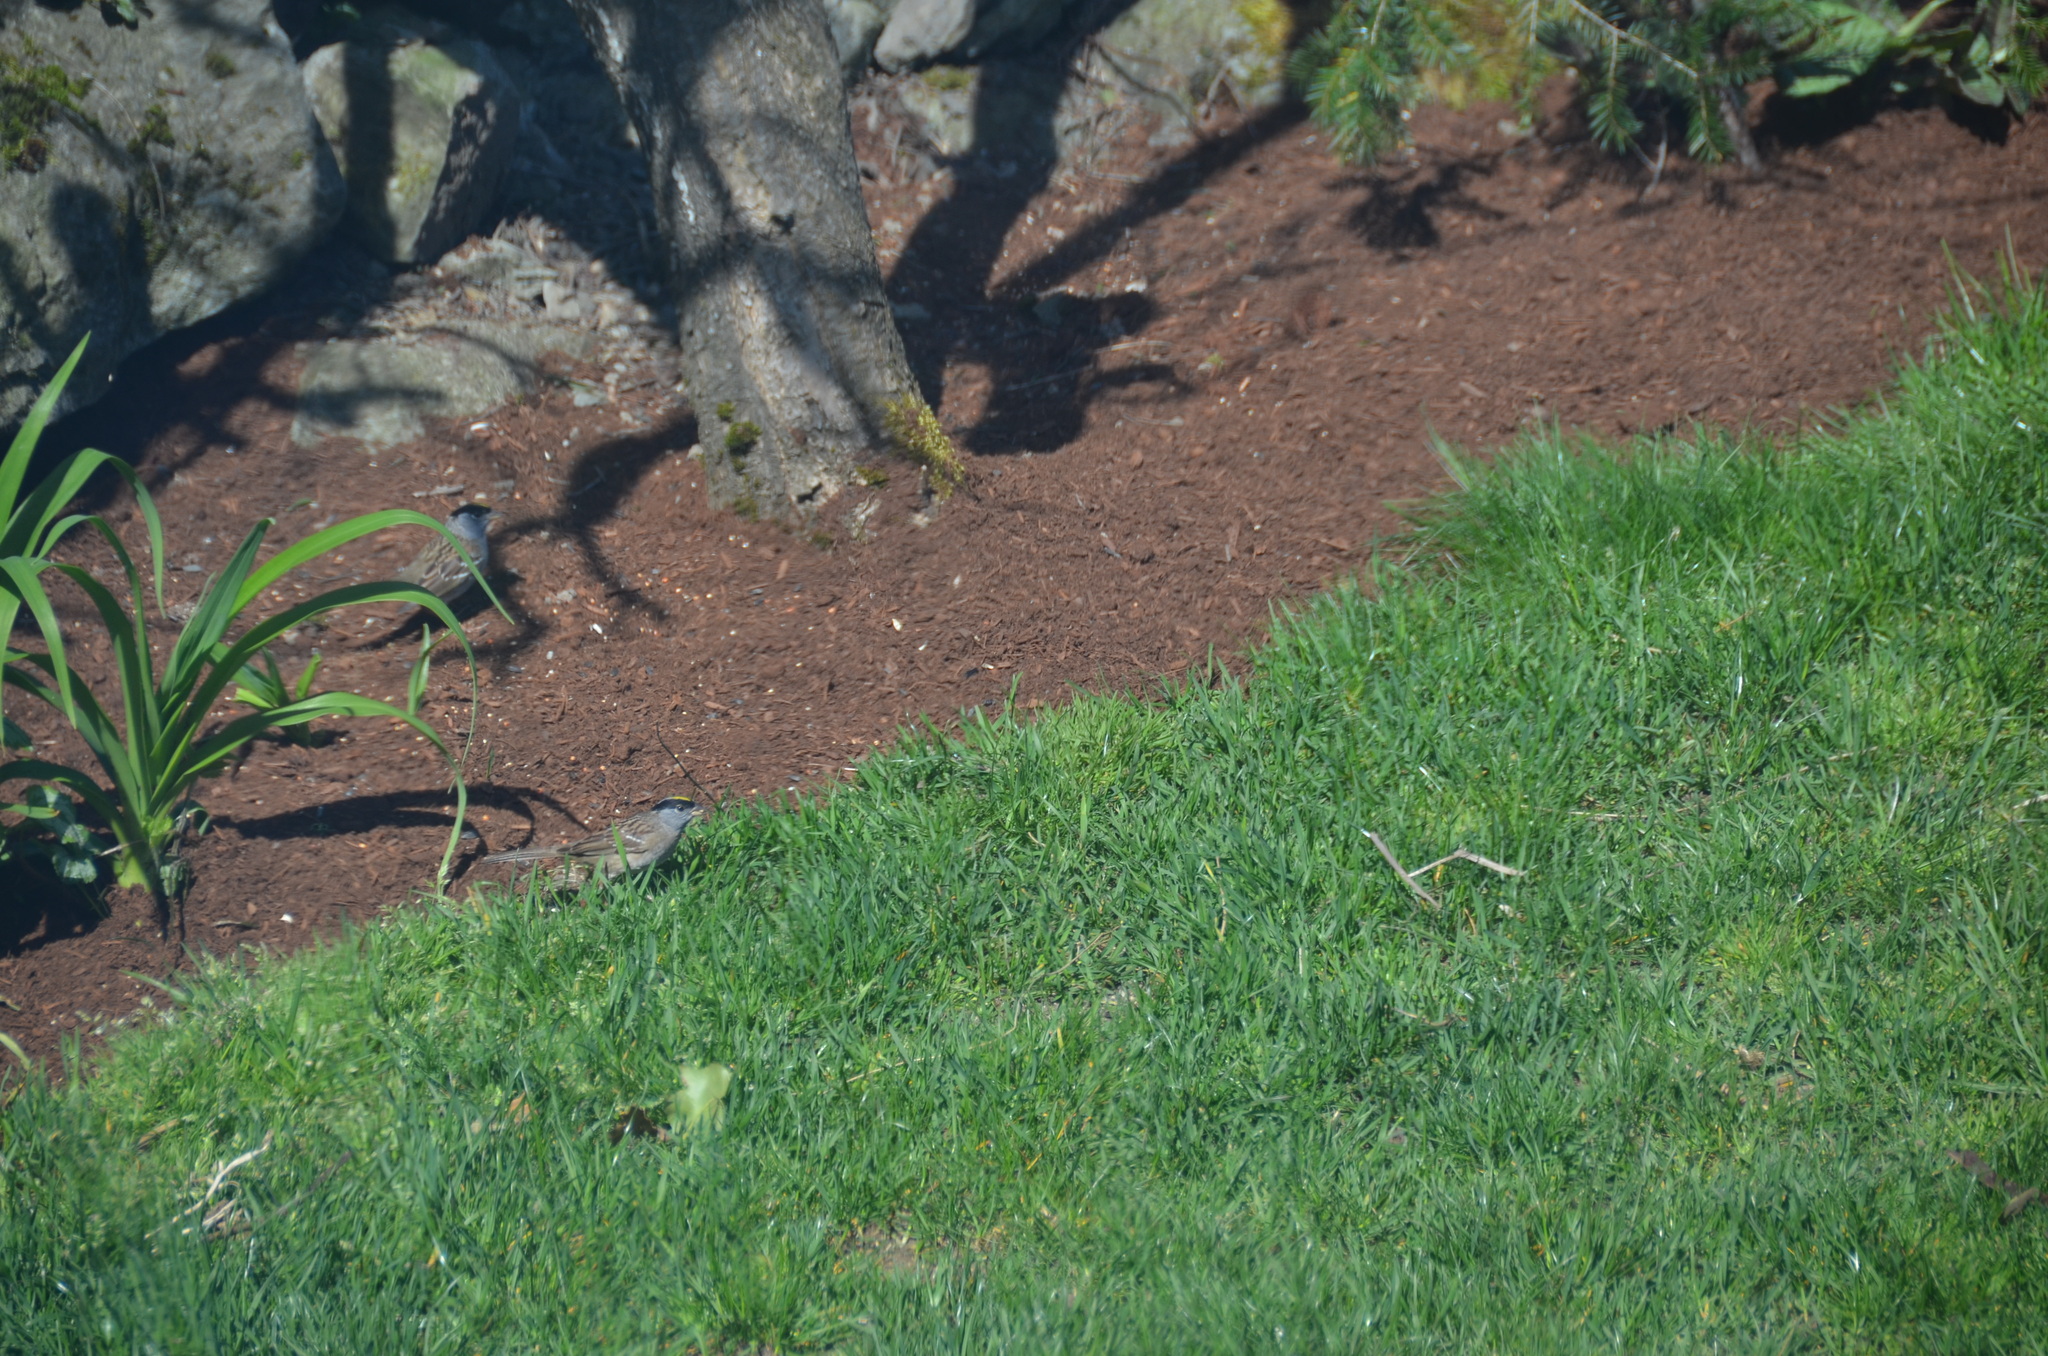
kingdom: Animalia
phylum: Chordata
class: Aves
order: Passeriformes
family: Passerellidae
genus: Zonotrichia
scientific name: Zonotrichia atricapilla
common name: Golden-crowned sparrow
